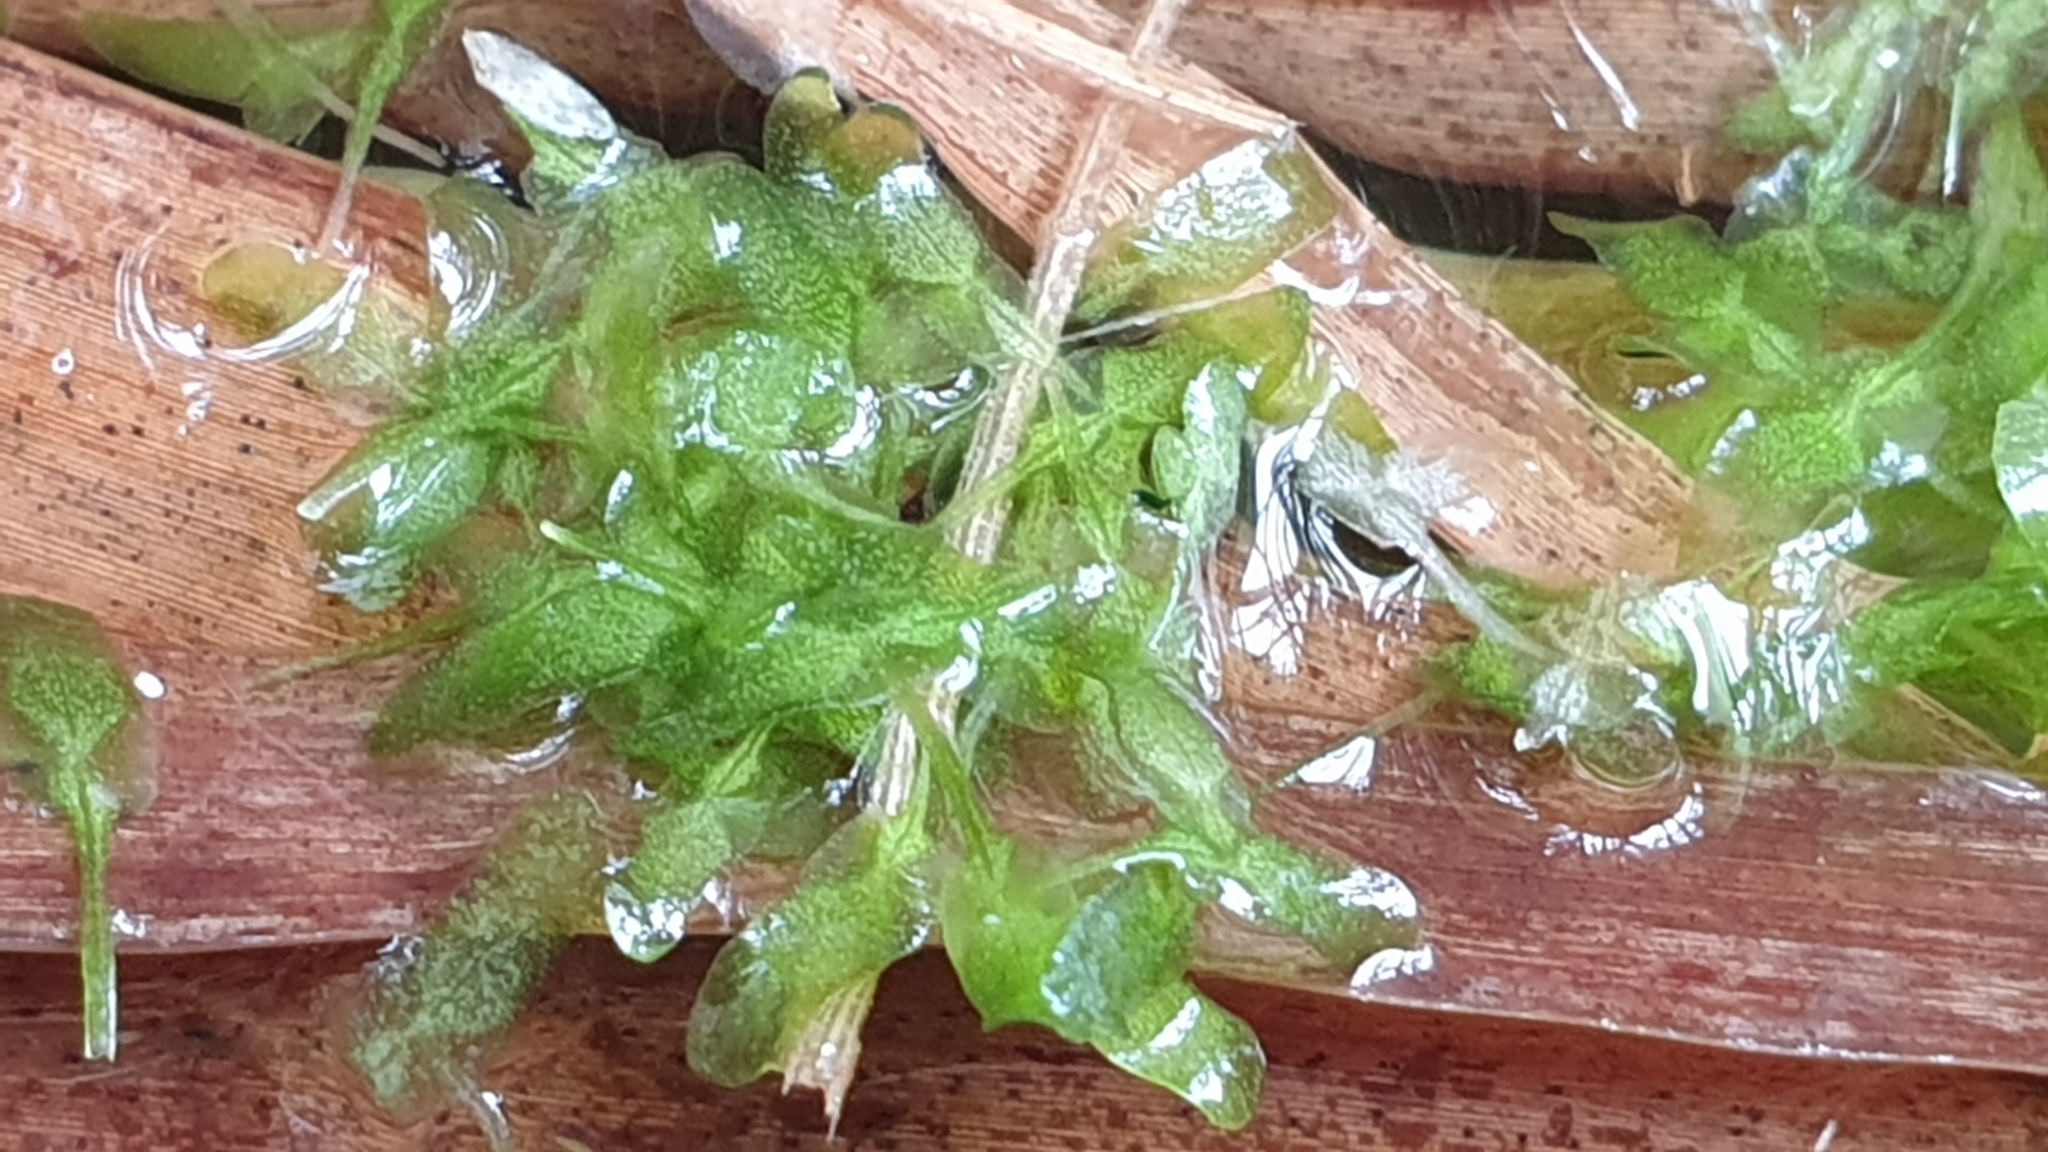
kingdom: Plantae
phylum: Tracheophyta
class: Liliopsida
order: Alismatales
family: Araceae
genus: Lemna
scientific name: Lemna trisulca
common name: Ivy-leaved duckweed
